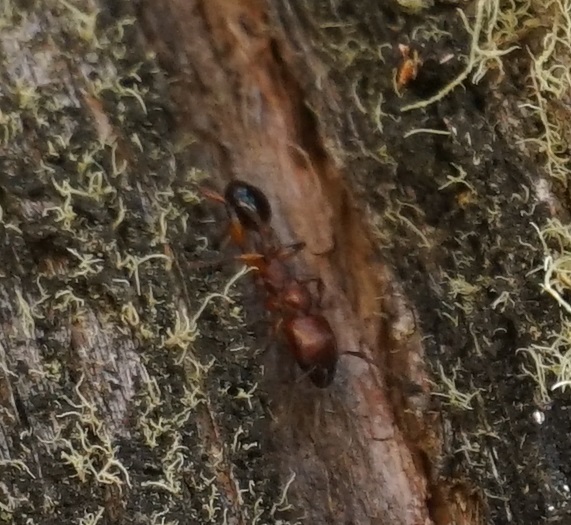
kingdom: Animalia
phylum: Arthropoda
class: Insecta
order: Hymenoptera
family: Formicidae
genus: Podomyrma
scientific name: Podomyrma gratiosa
